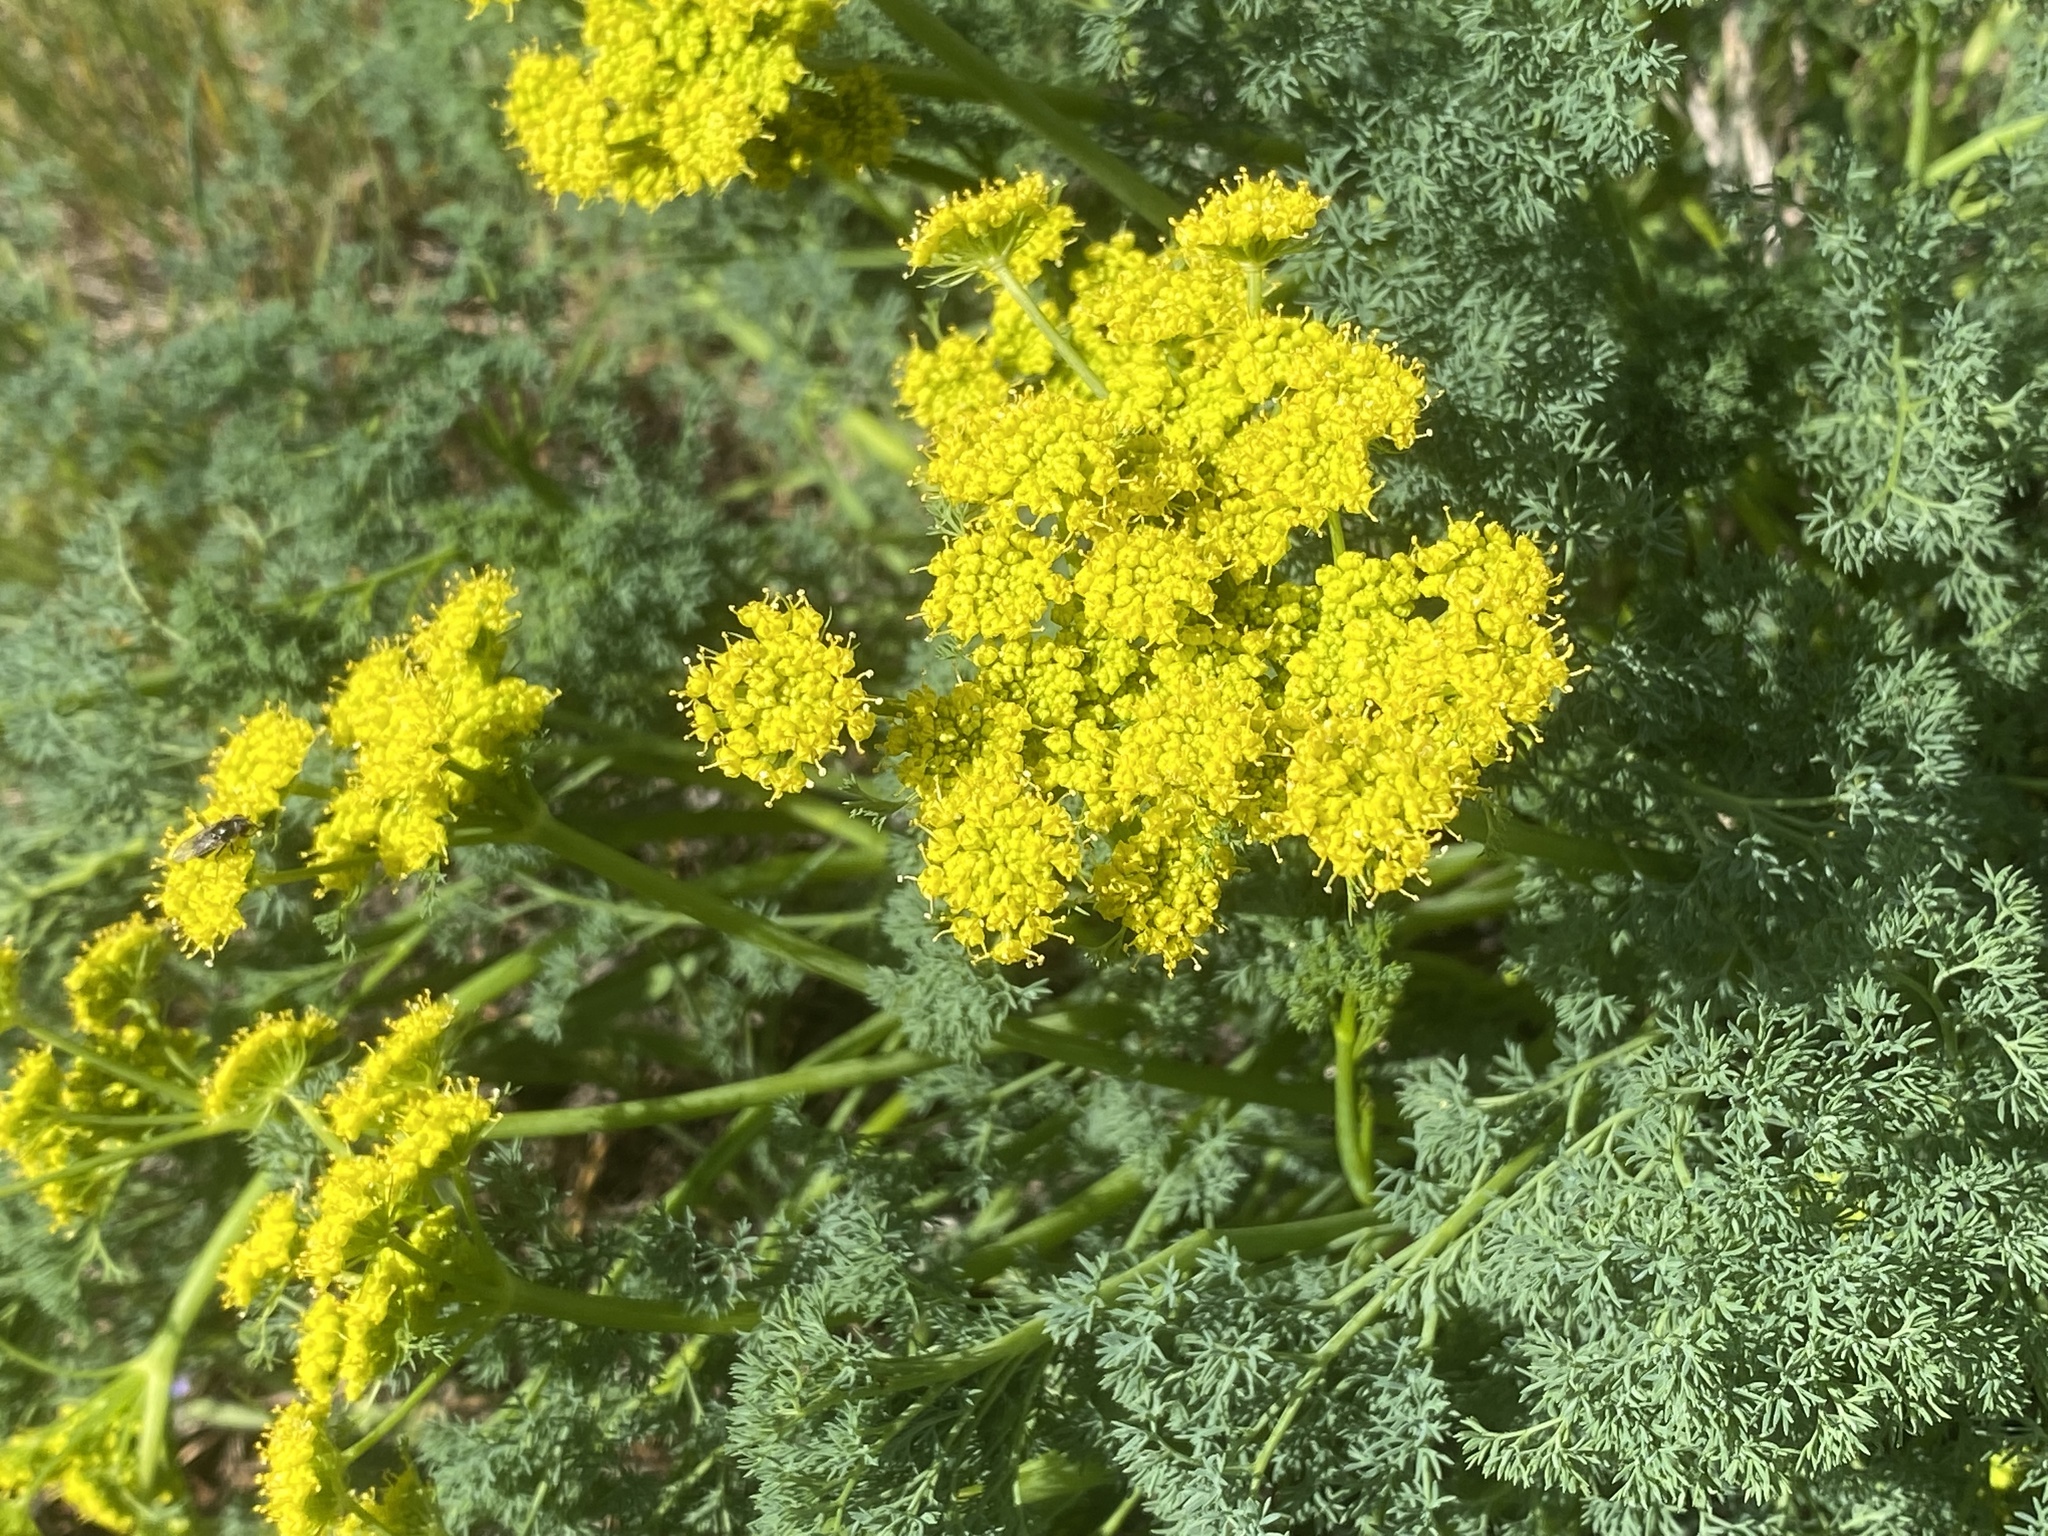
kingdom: Plantae
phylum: Tracheophyta
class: Magnoliopsida
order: Apiales
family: Apiaceae
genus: Lomatium
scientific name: Lomatium papilioniferum
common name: Butterfly lomatium
